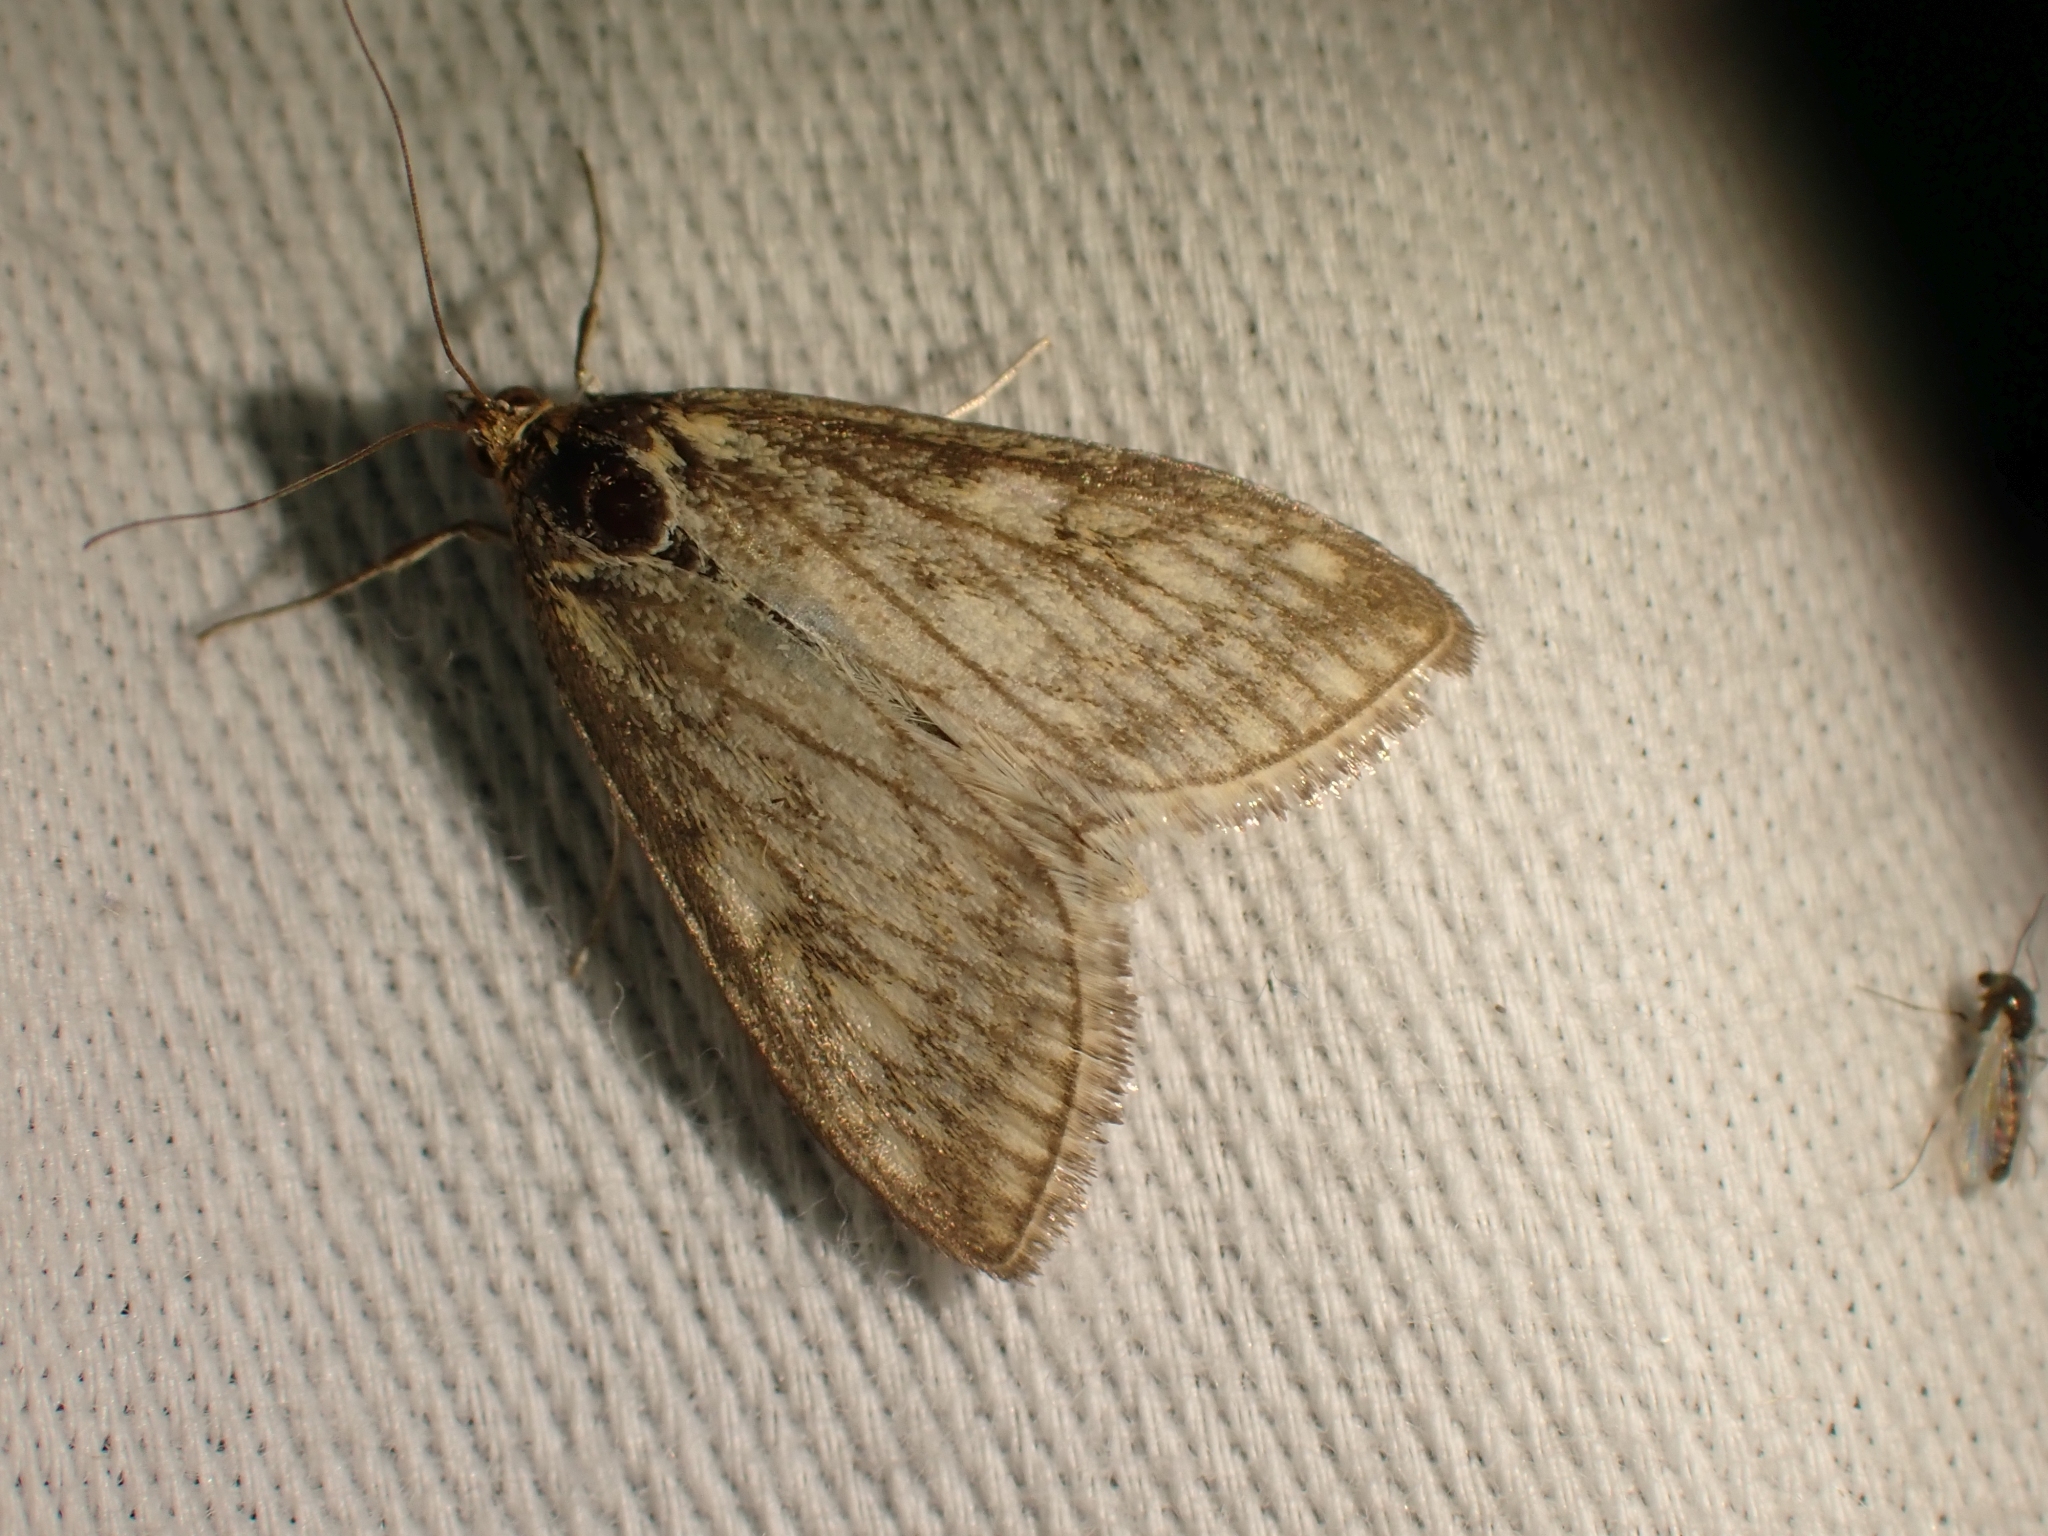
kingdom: Animalia
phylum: Arthropoda
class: Insecta
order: Lepidoptera
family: Crambidae
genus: Sitochroa
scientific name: Sitochroa chortalis
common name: Dimorphic sitochroa moth
